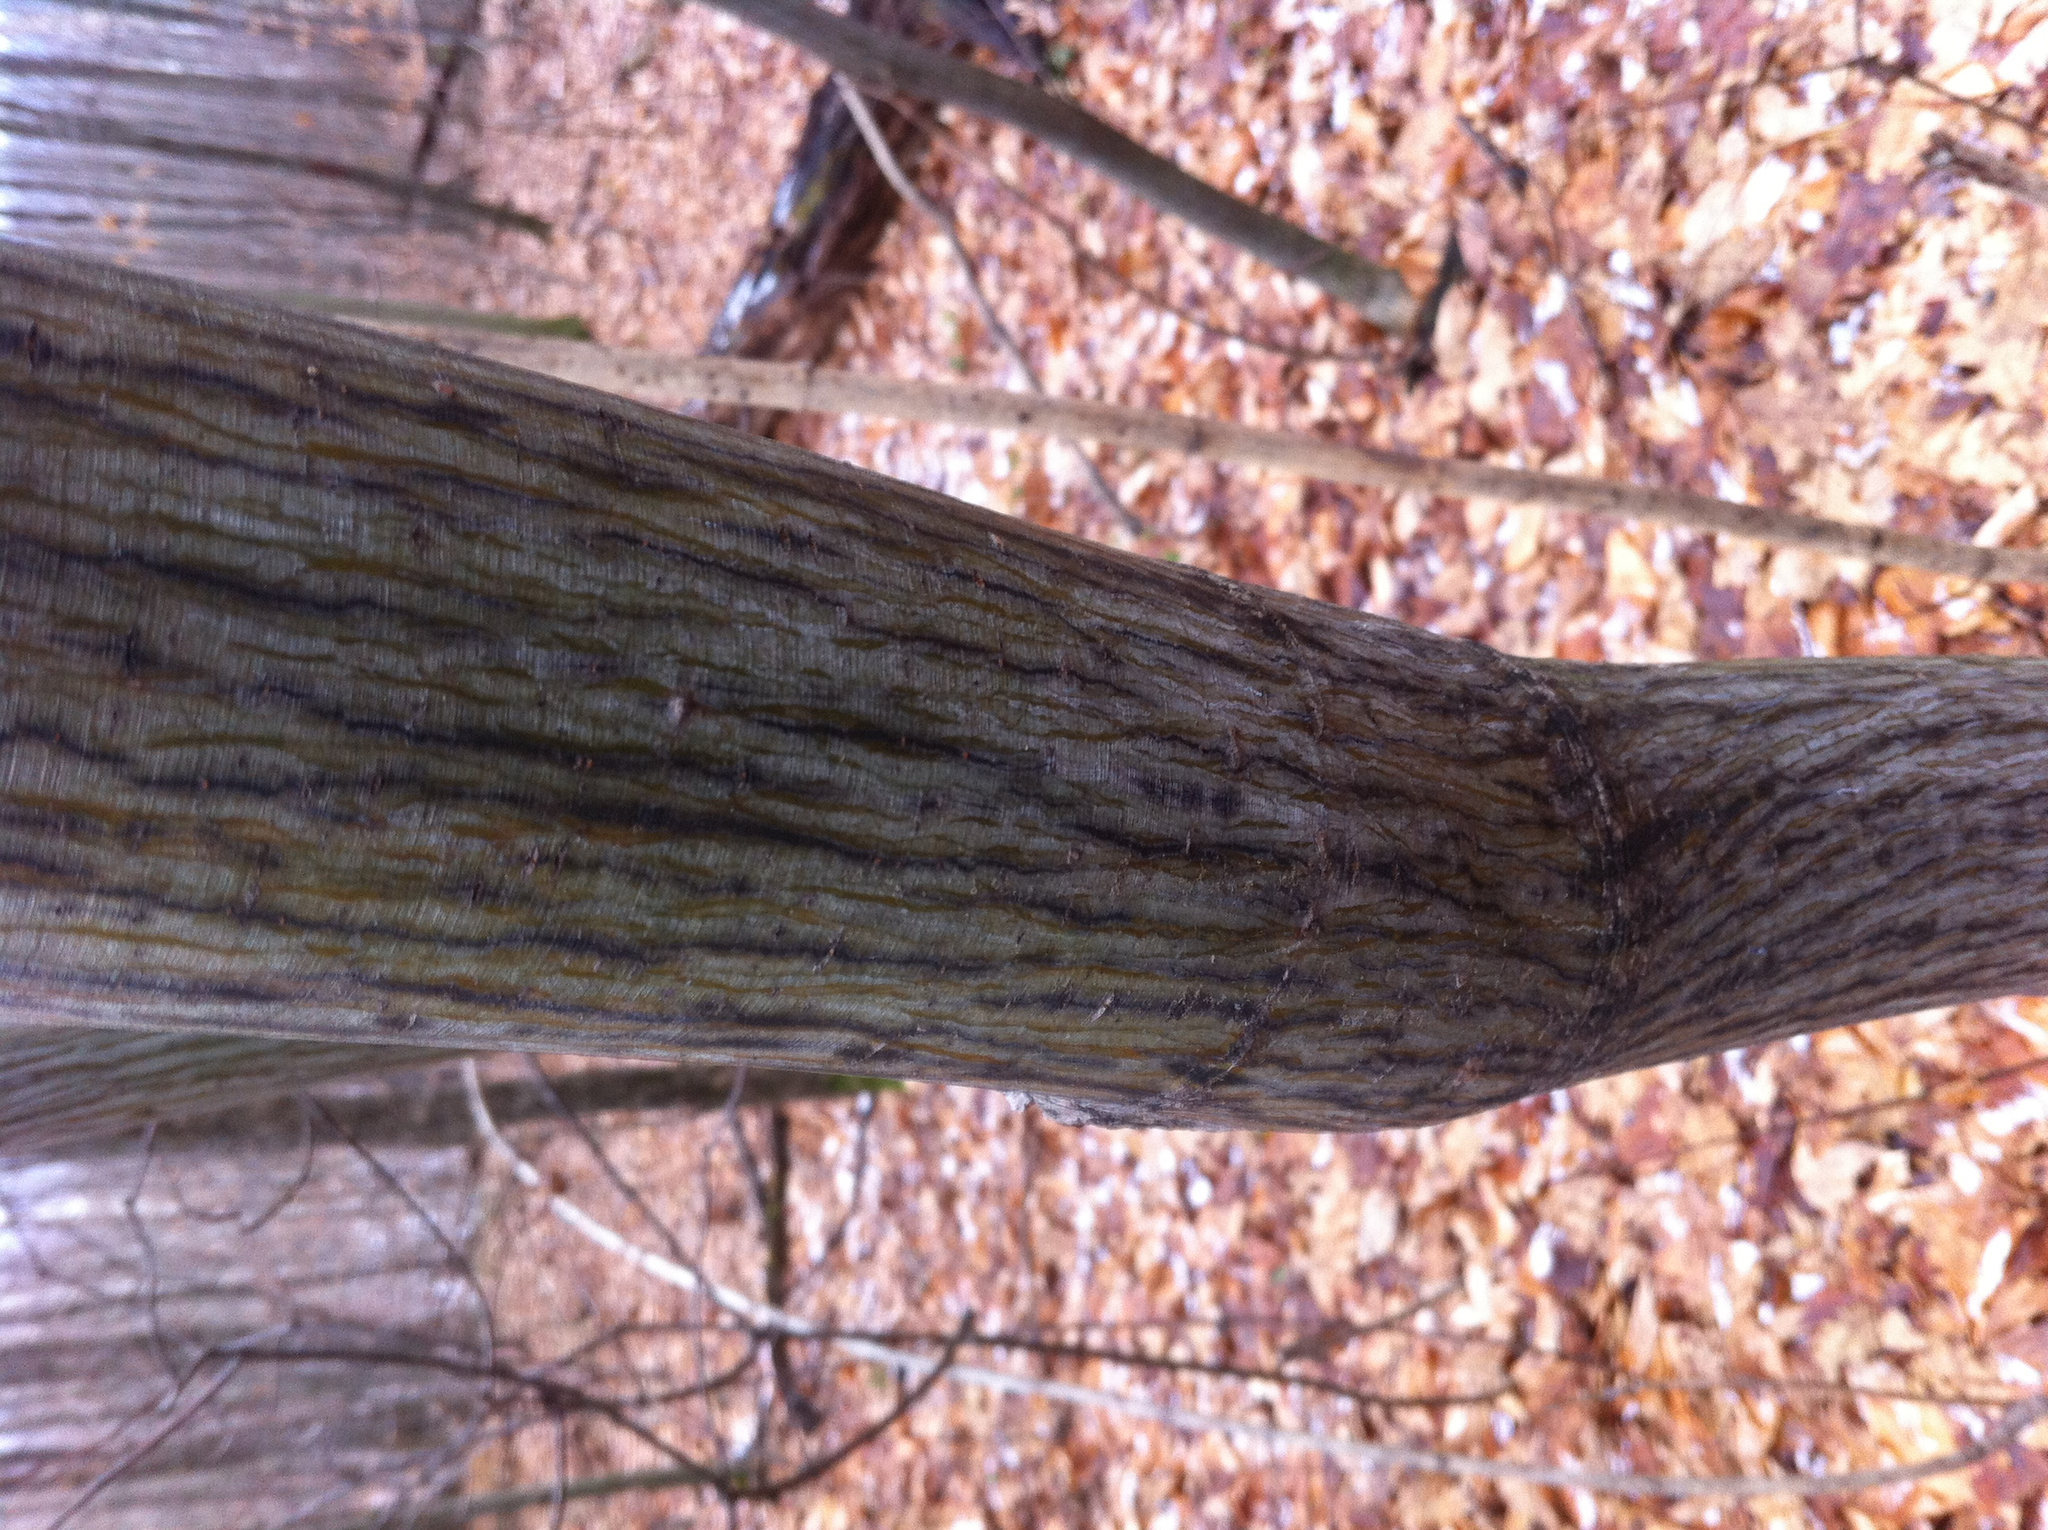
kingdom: Plantae
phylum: Tracheophyta
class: Magnoliopsida
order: Sapindales
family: Sapindaceae
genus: Acer
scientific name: Acer pensylvanicum
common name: Moosewood
